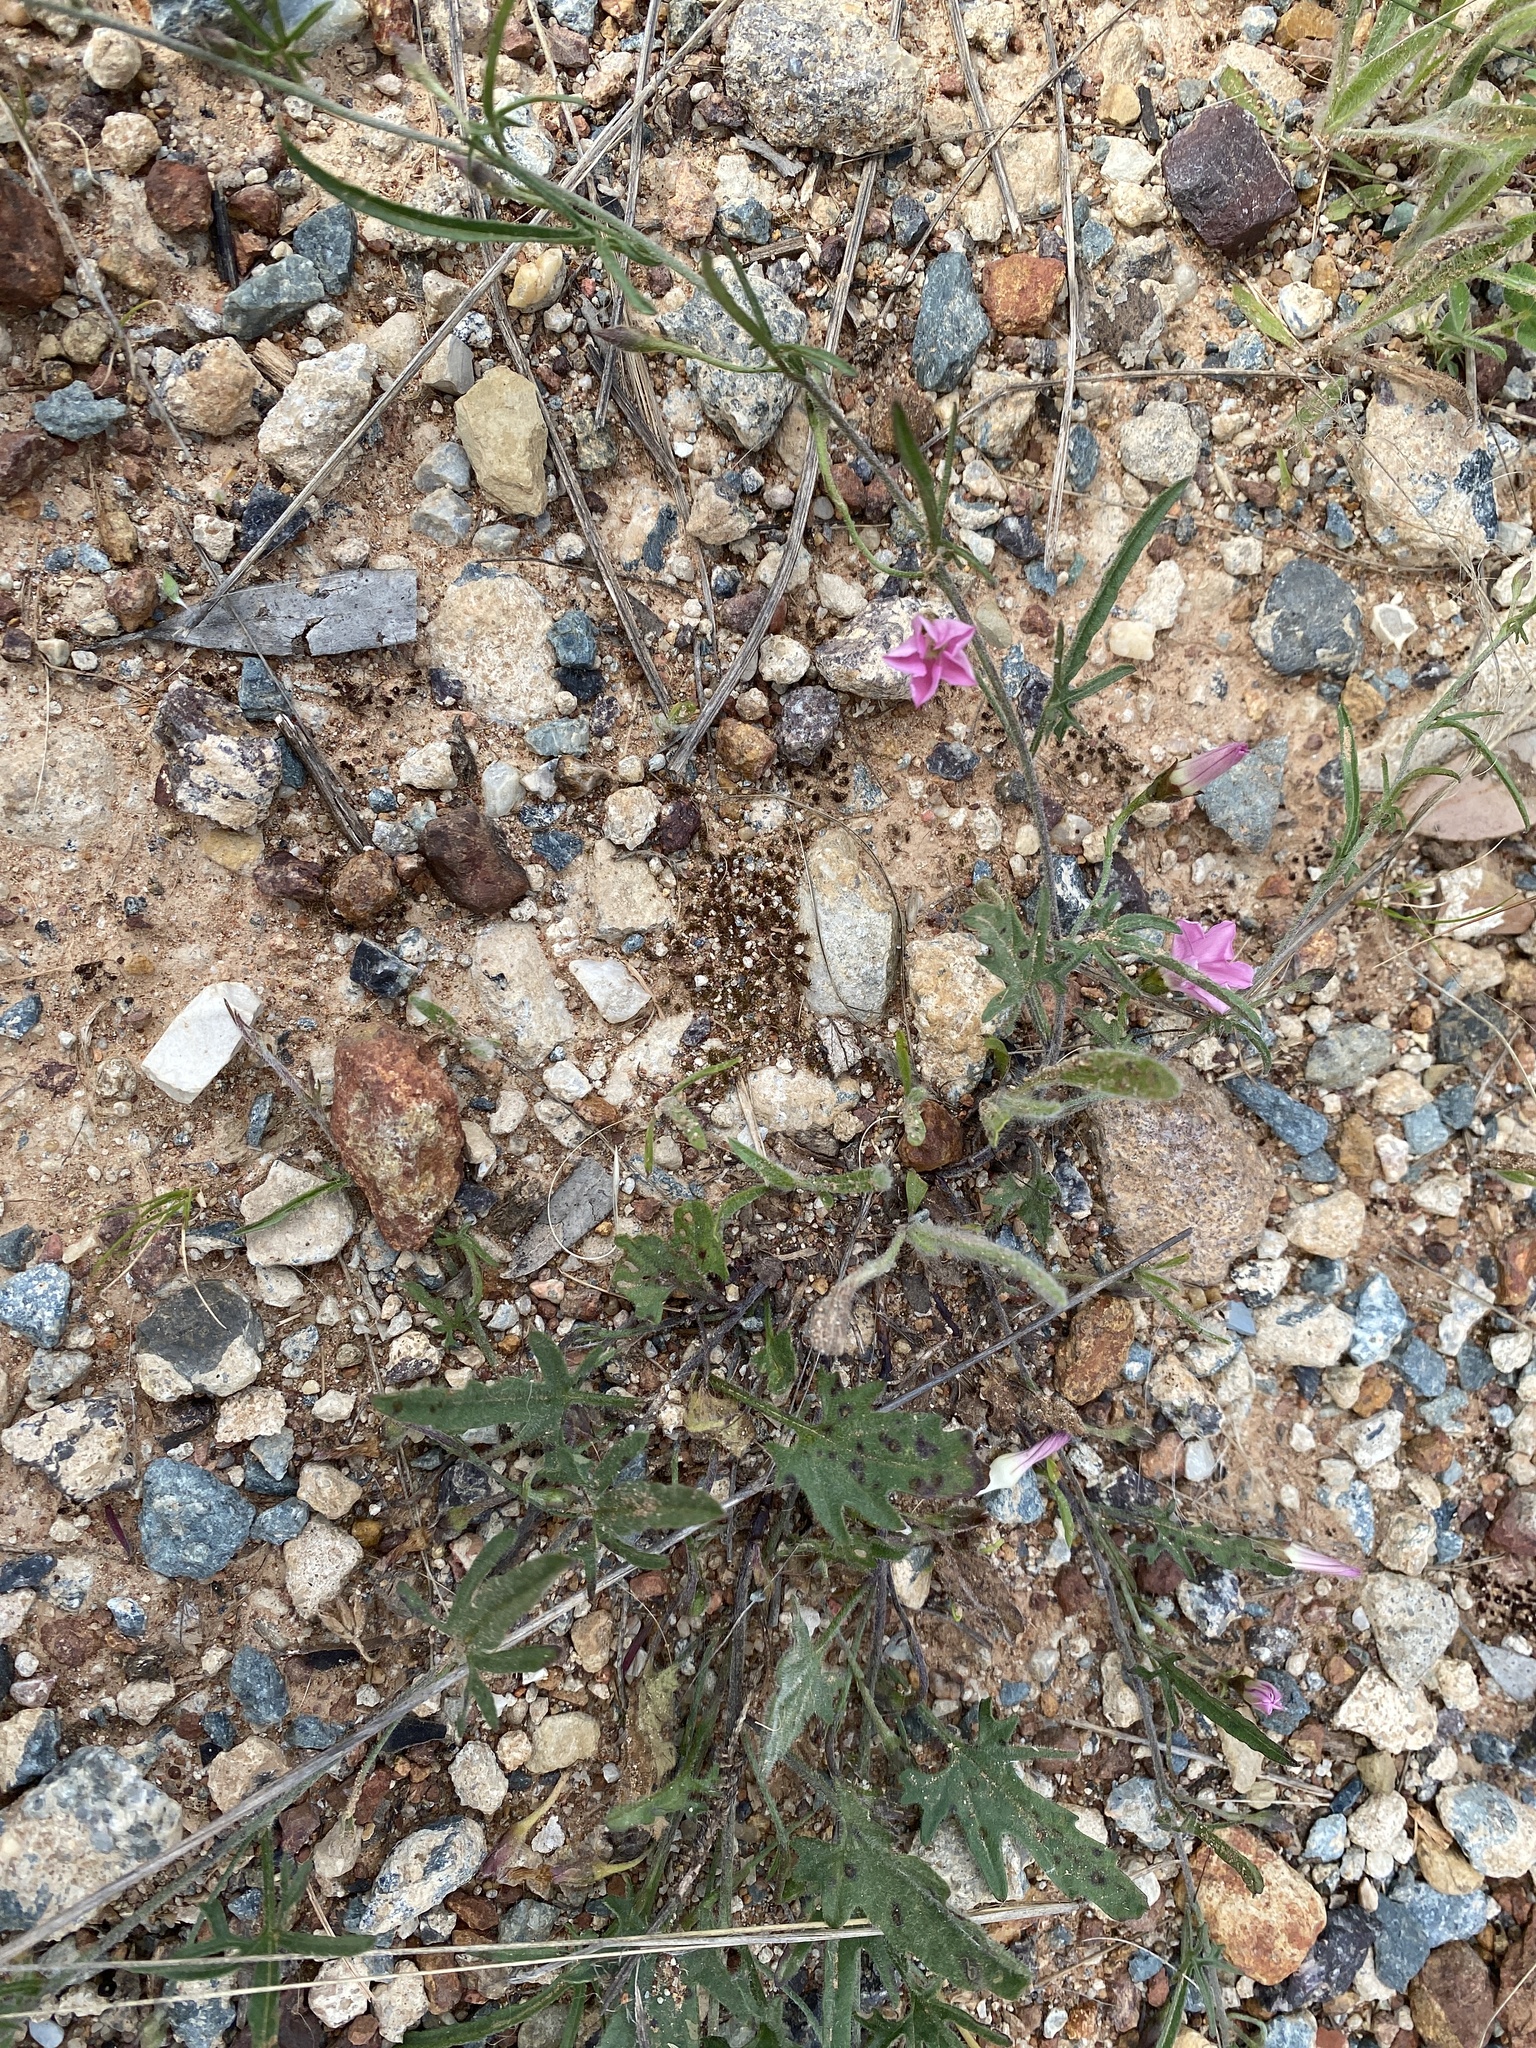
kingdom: Plantae
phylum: Tracheophyta
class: Magnoliopsida
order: Solanales
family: Convolvulaceae
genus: Convolvulus
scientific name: Convolvulus angustissimus
